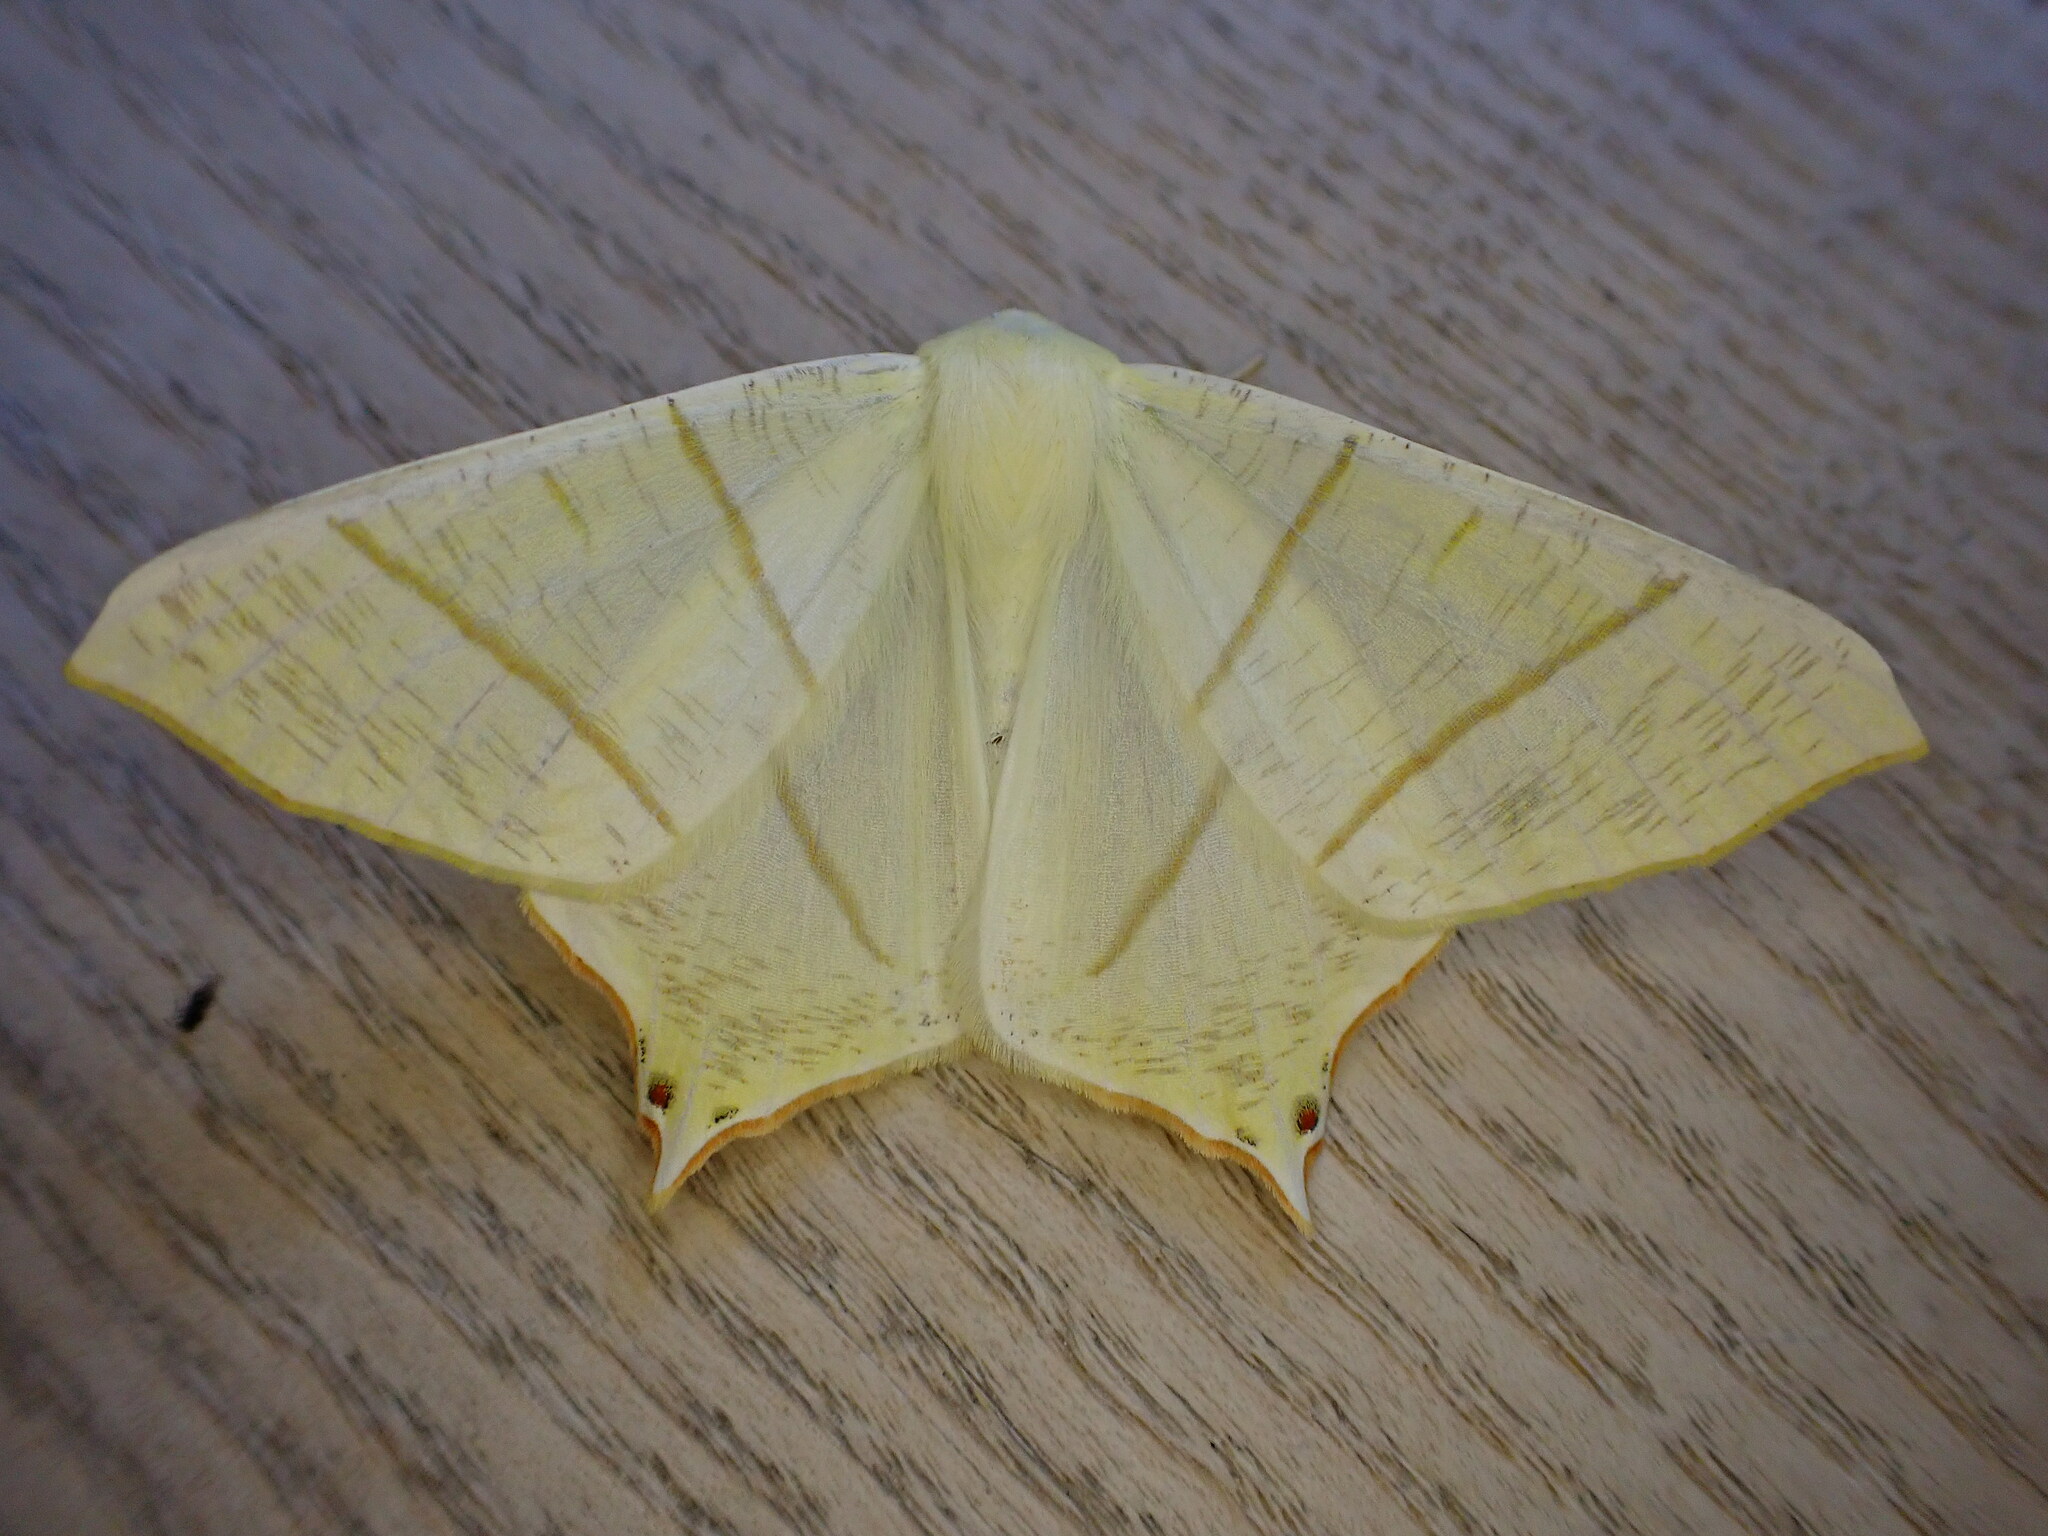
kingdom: Animalia
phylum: Arthropoda
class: Insecta
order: Lepidoptera
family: Geometridae
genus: Ourapteryx
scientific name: Ourapteryx sambucaria
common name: Swallow-tailed moth
